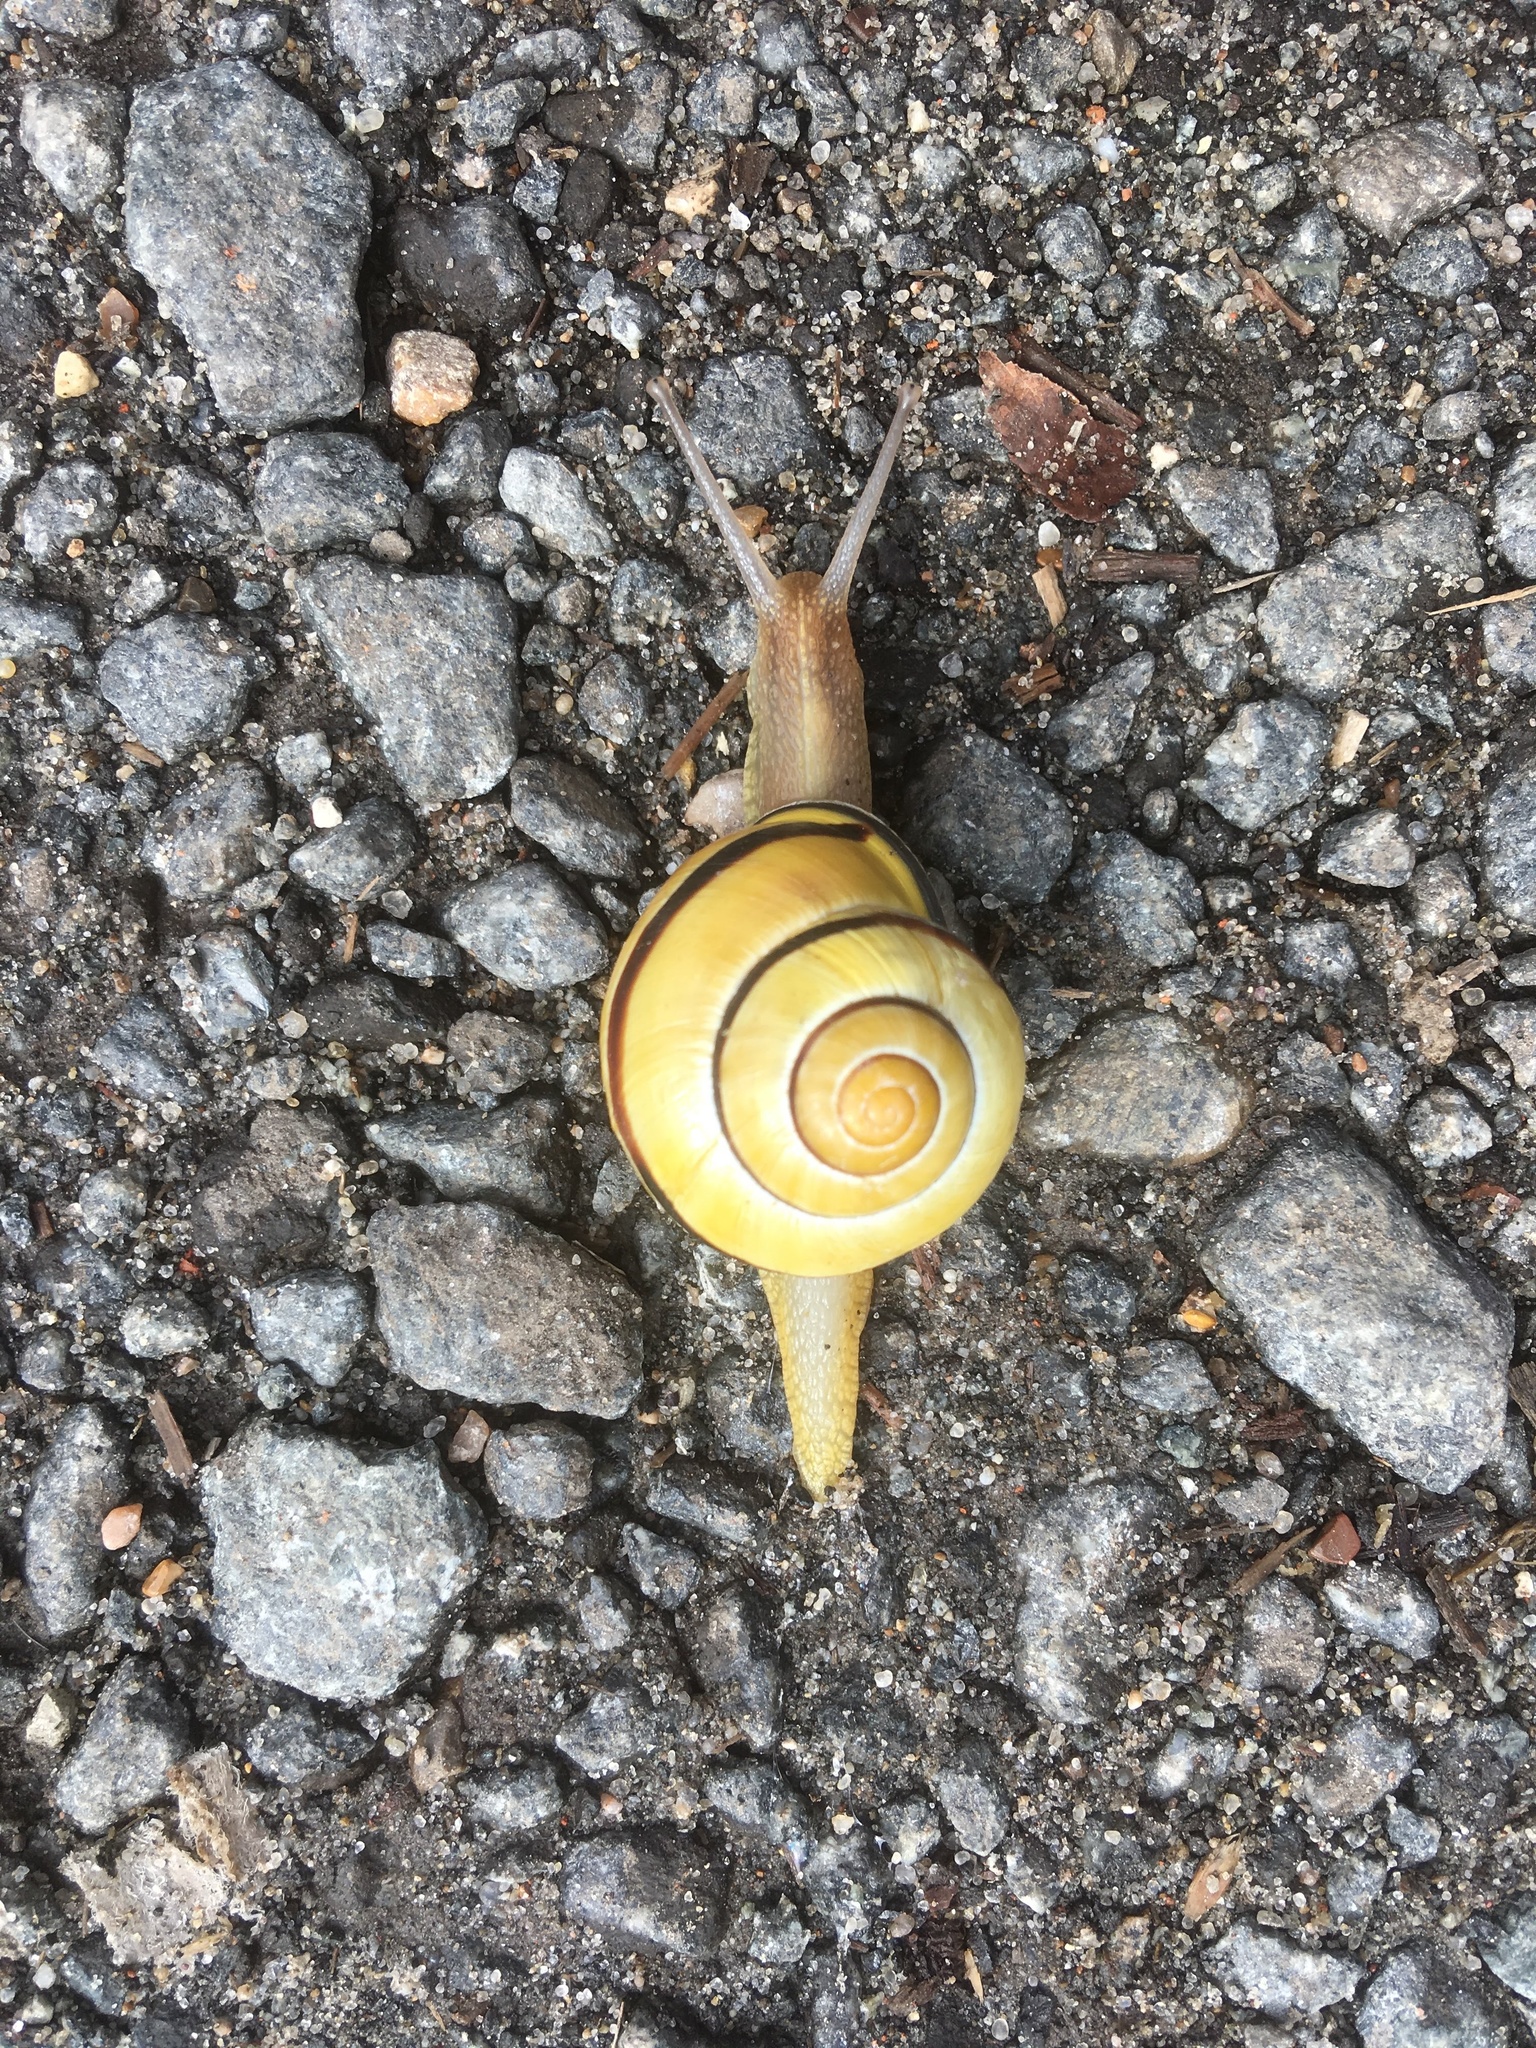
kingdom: Animalia
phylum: Mollusca
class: Gastropoda
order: Stylommatophora
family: Helicidae
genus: Cepaea
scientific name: Cepaea nemoralis
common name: Grovesnail
